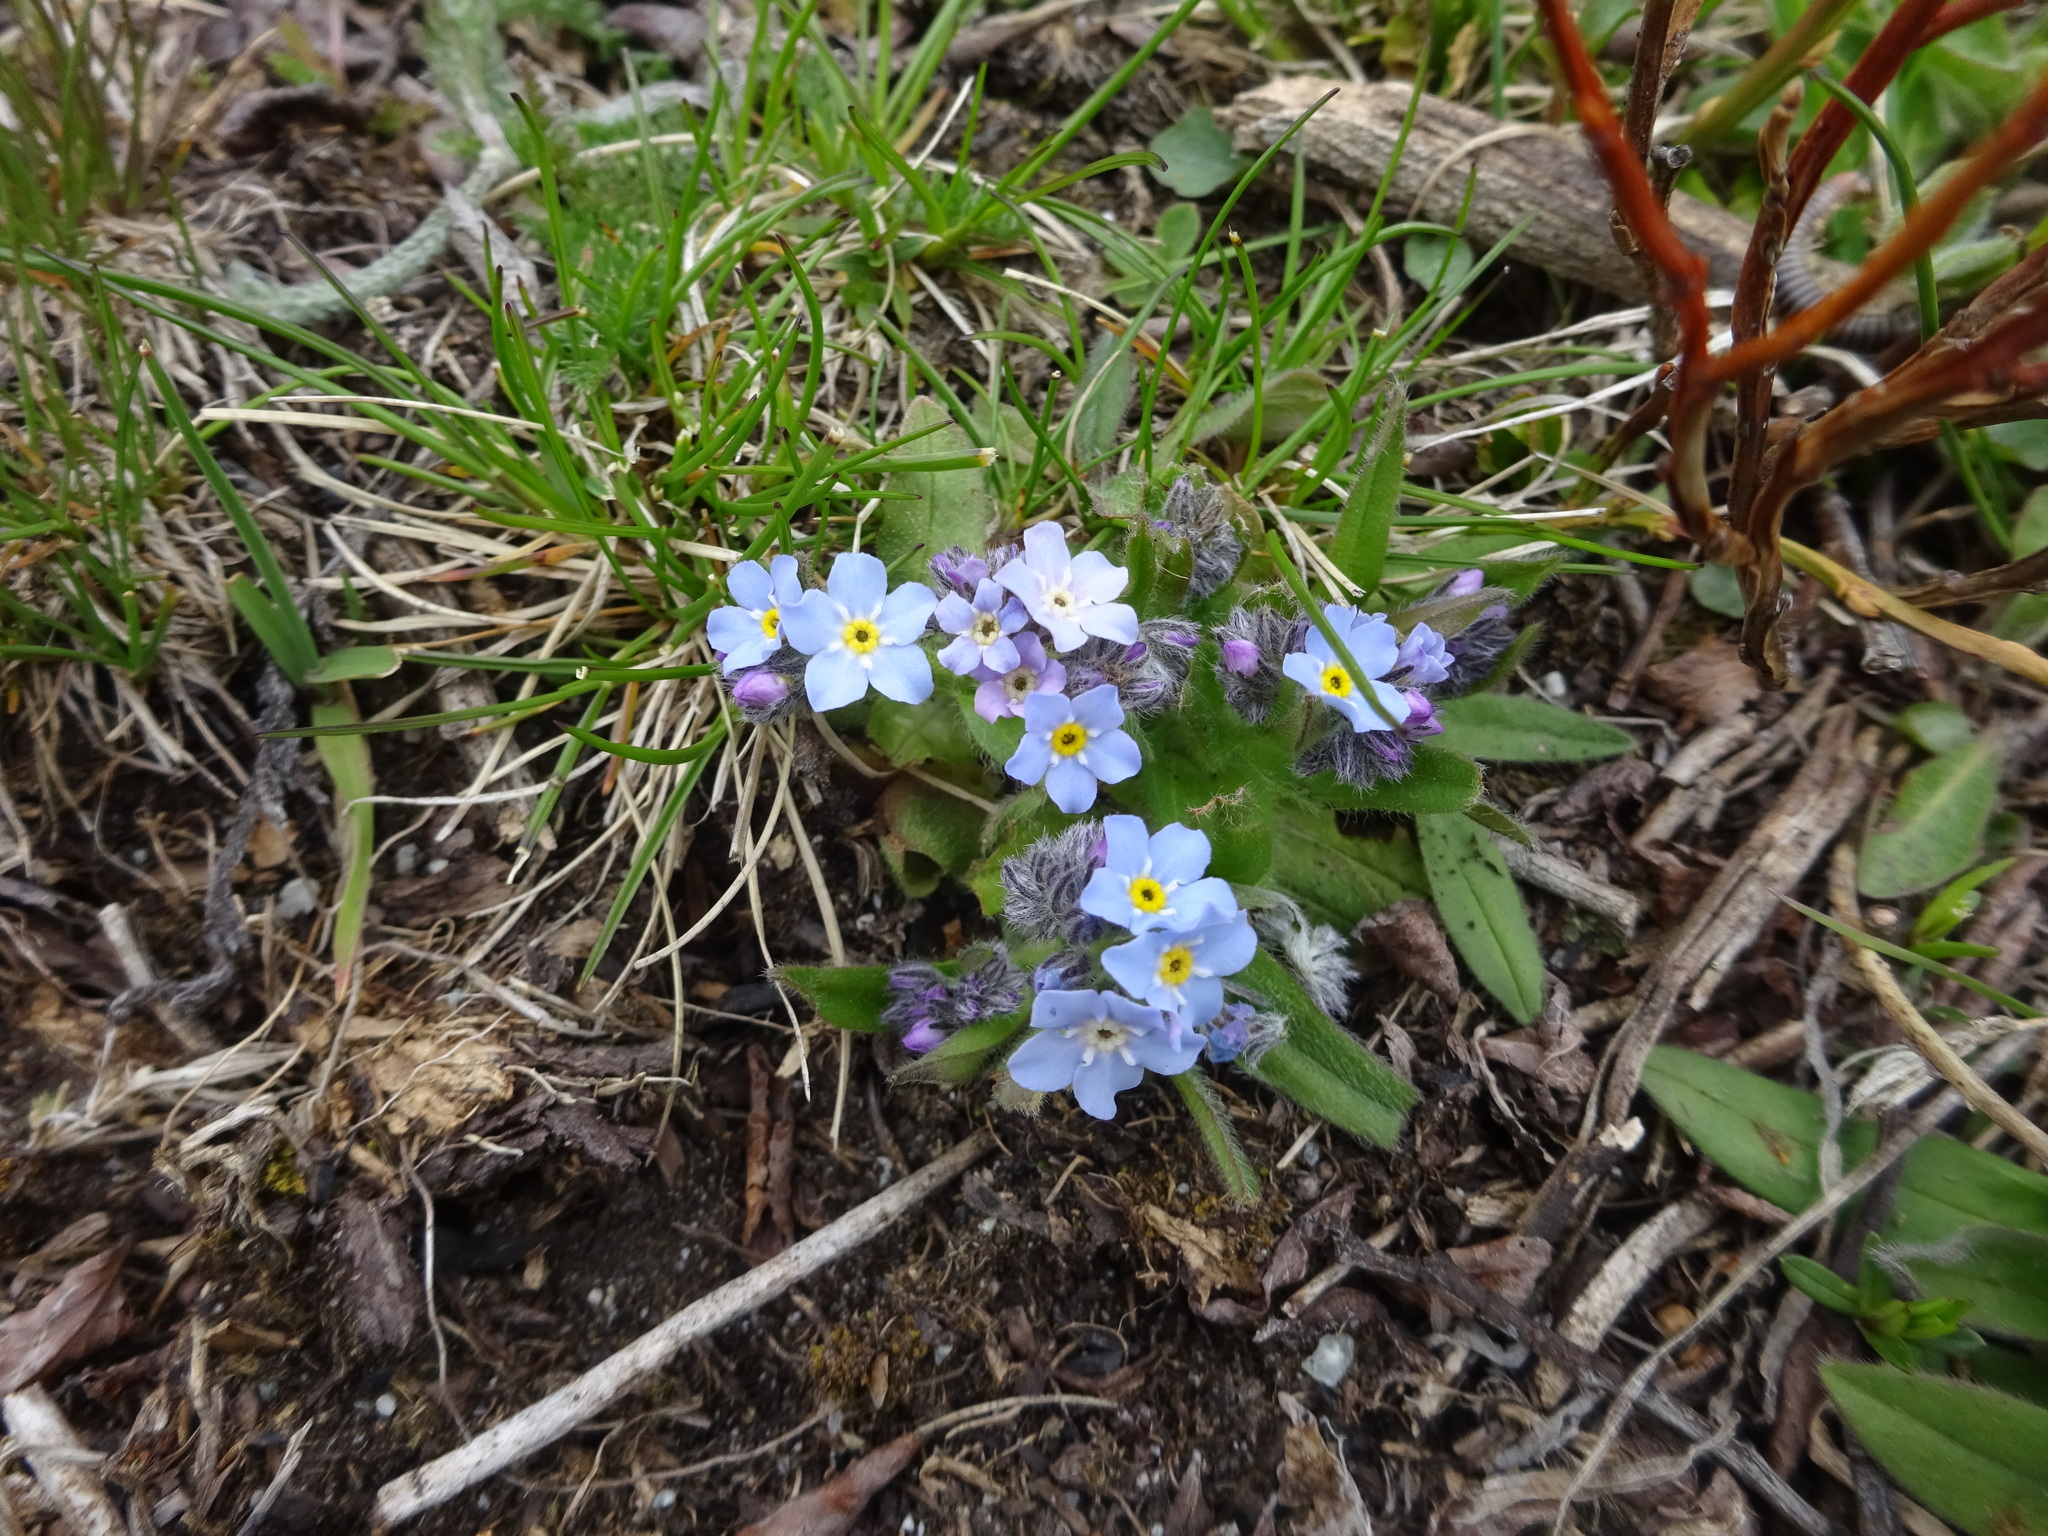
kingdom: Plantae
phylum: Tracheophyta
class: Magnoliopsida
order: Boraginales
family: Boraginaceae
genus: Myosotis
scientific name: Myosotis alpestris
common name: Alpine forget-me-not
